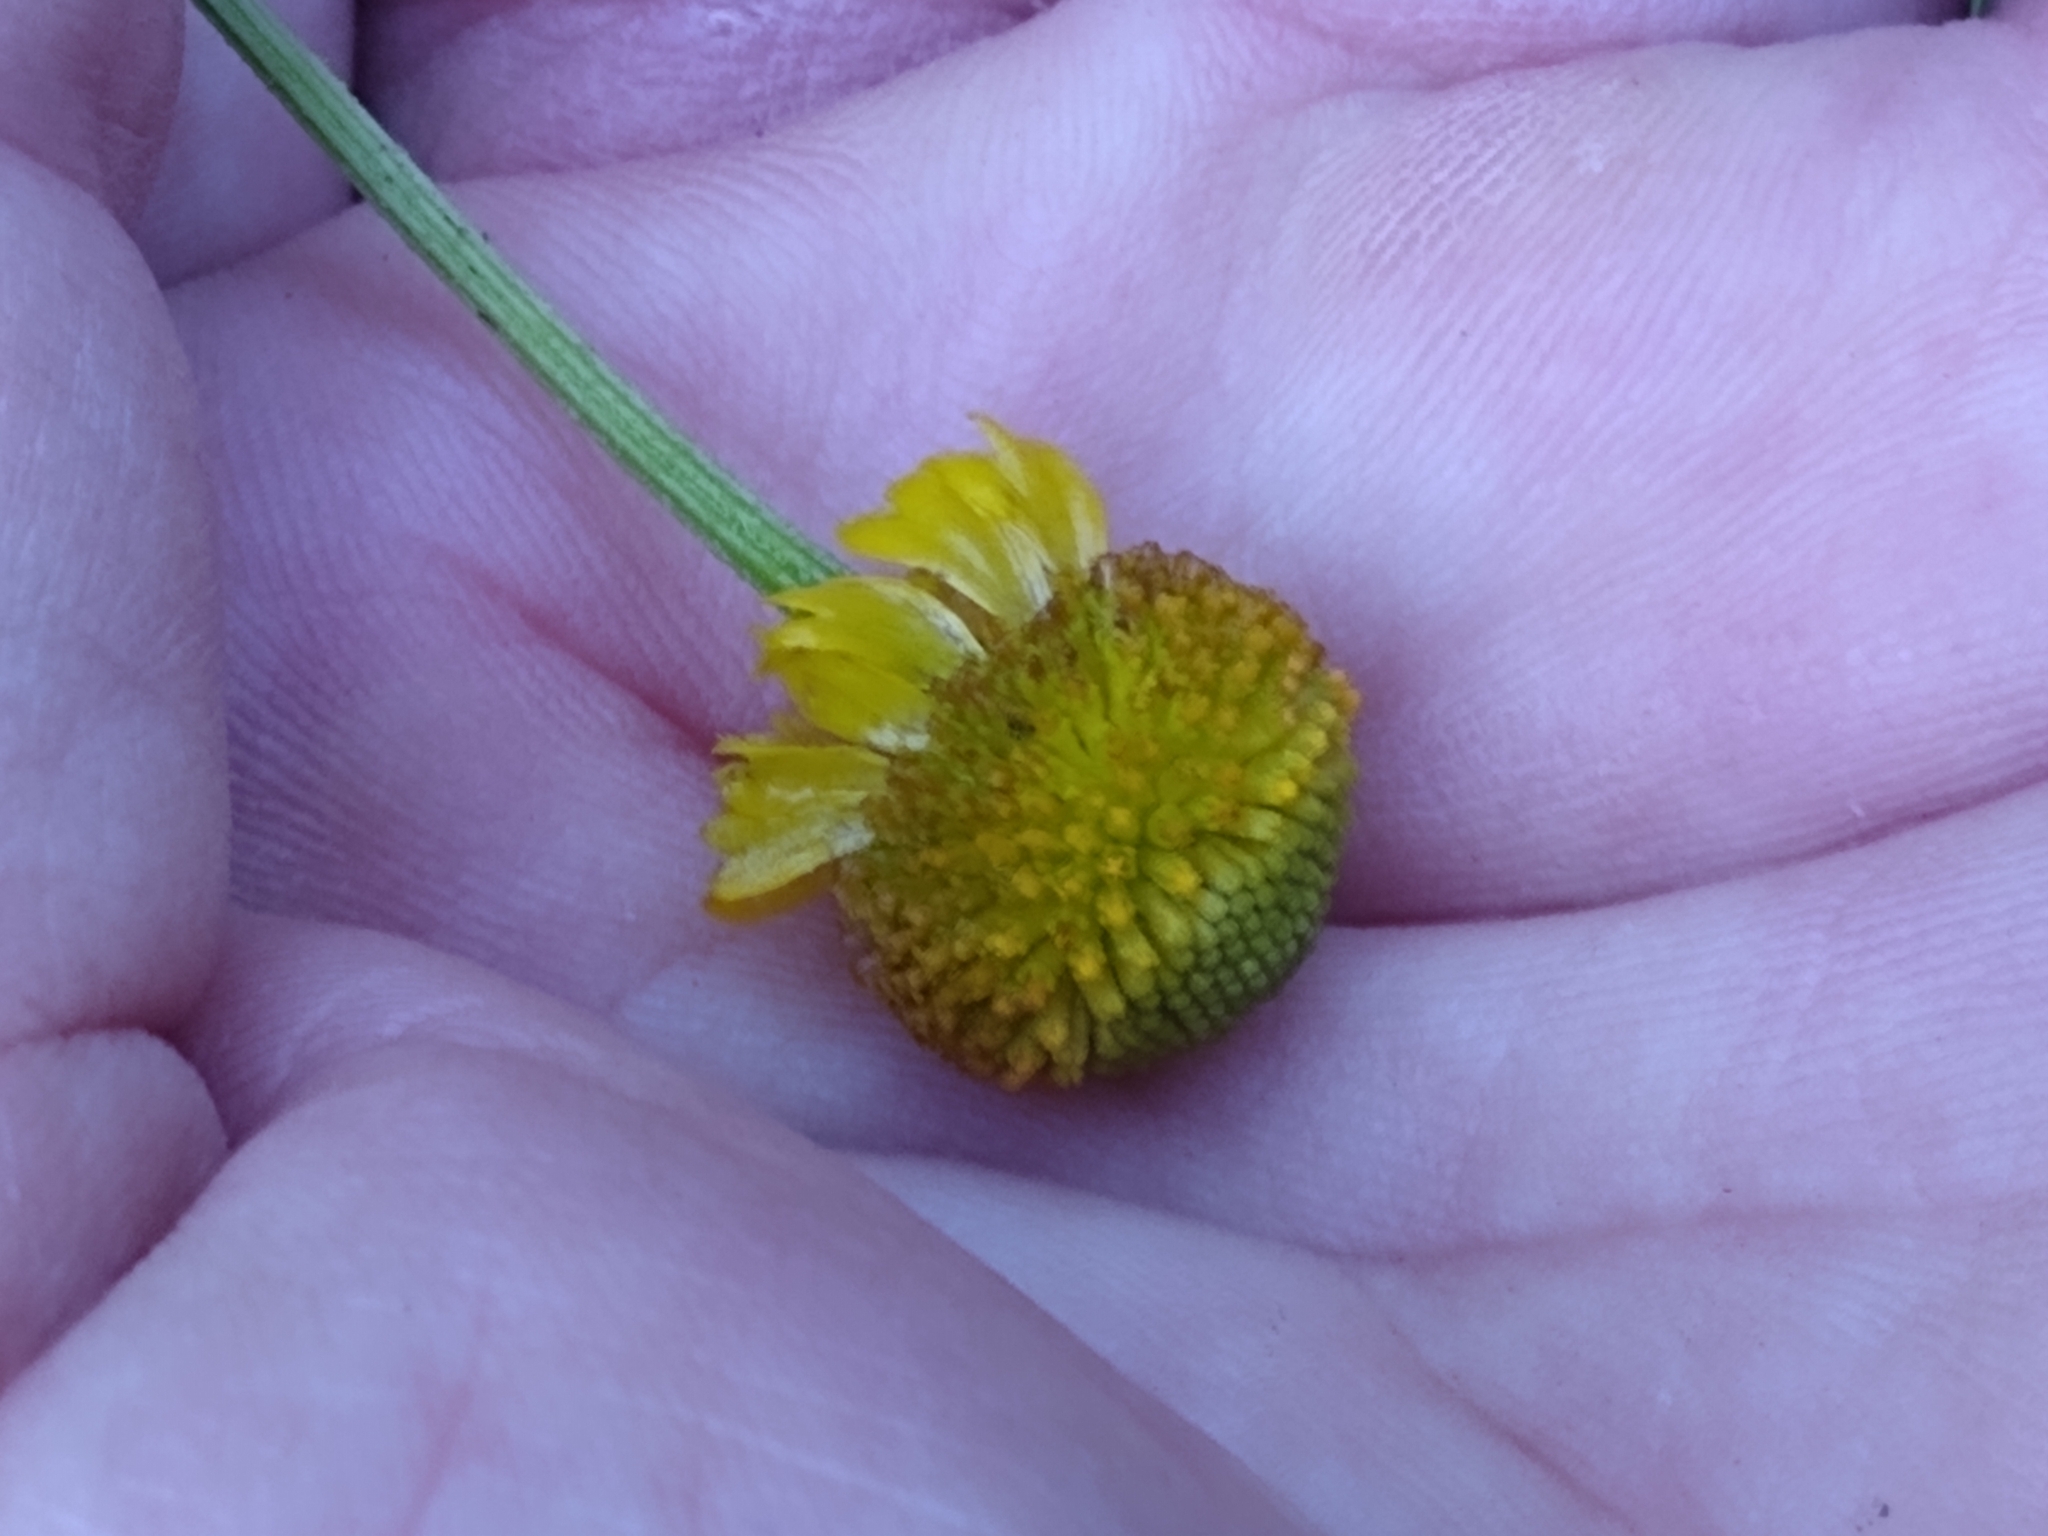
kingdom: Plantae
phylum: Tracheophyta
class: Magnoliopsida
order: Asterales
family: Asteraceae
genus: Helenium
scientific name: Helenium puberulum
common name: Sneezewort
